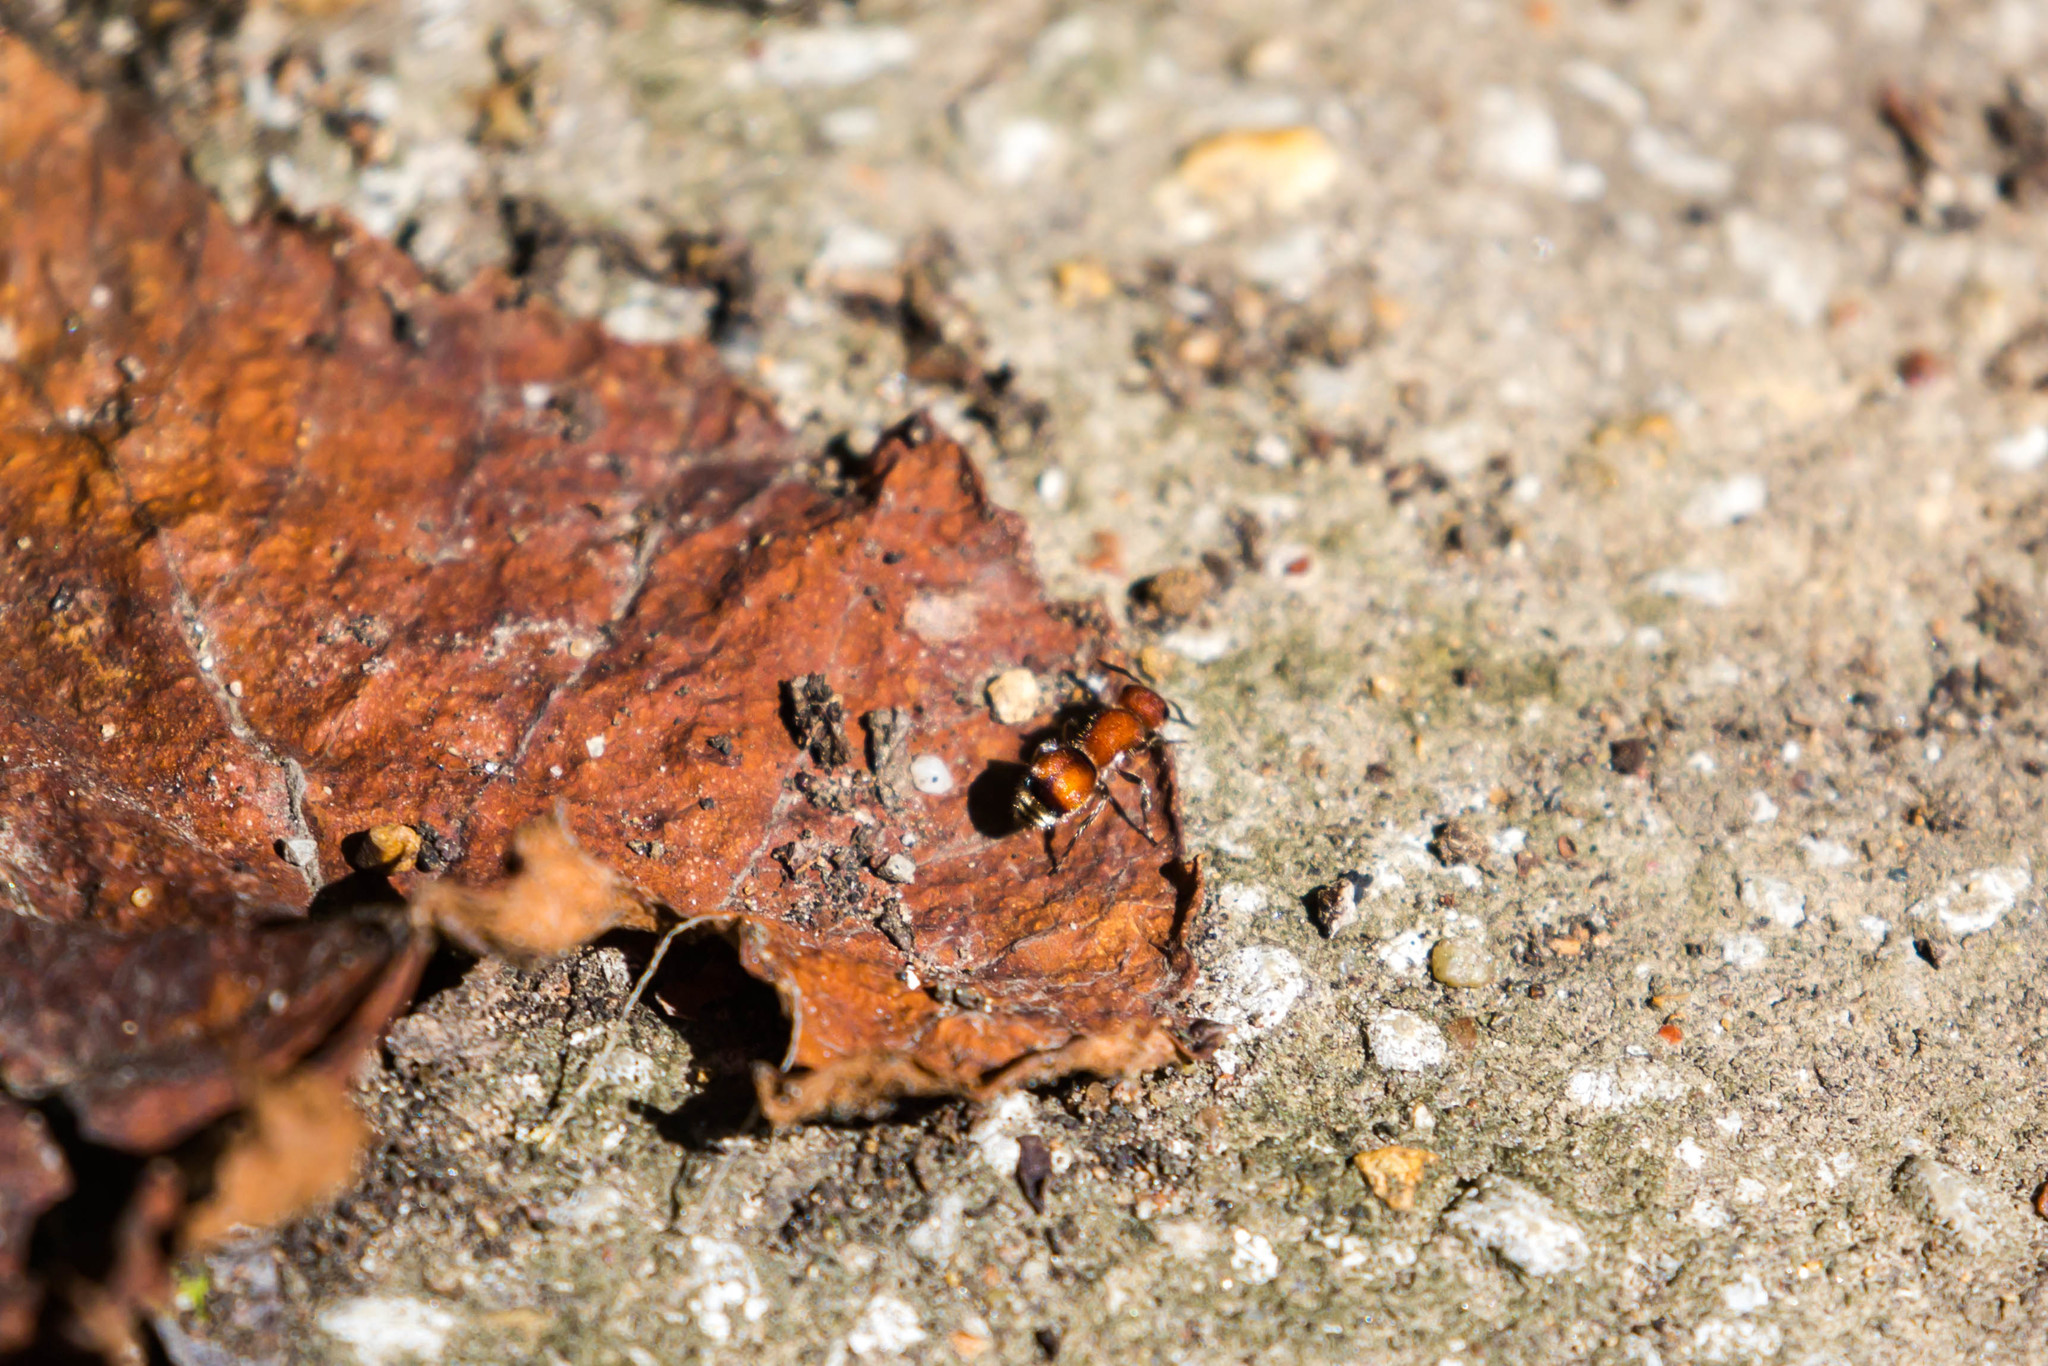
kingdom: Animalia
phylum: Arthropoda
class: Insecta
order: Hymenoptera
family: Mutillidae
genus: Pseudomethoca
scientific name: Pseudomethoca
